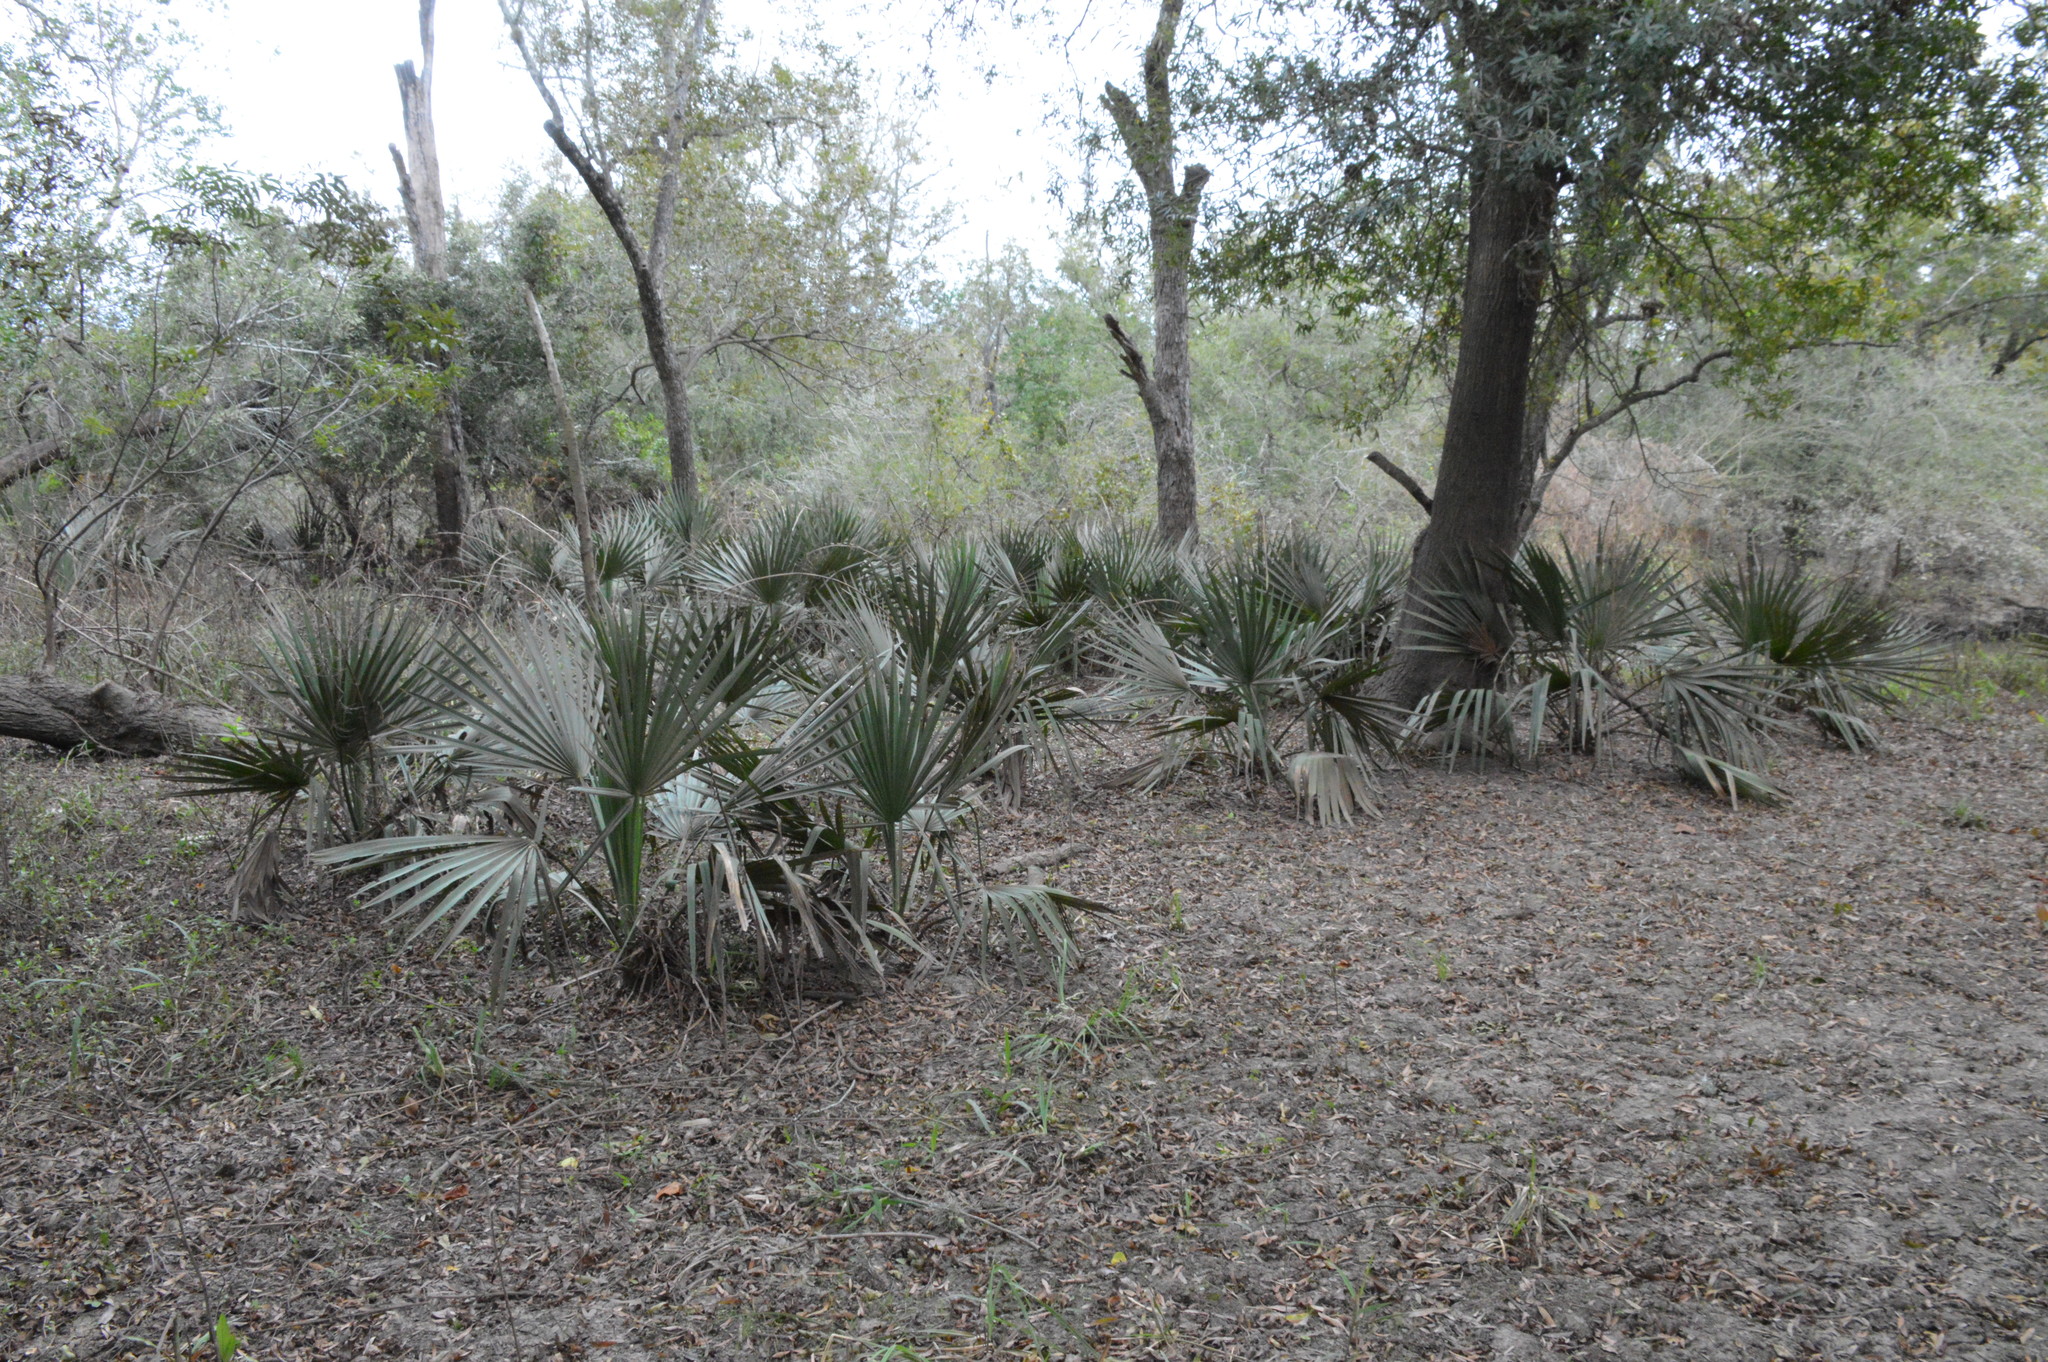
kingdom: Plantae
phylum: Tracheophyta
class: Liliopsida
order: Arecales
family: Arecaceae
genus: Sabal
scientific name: Sabal minor
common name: Dwarf palmetto
